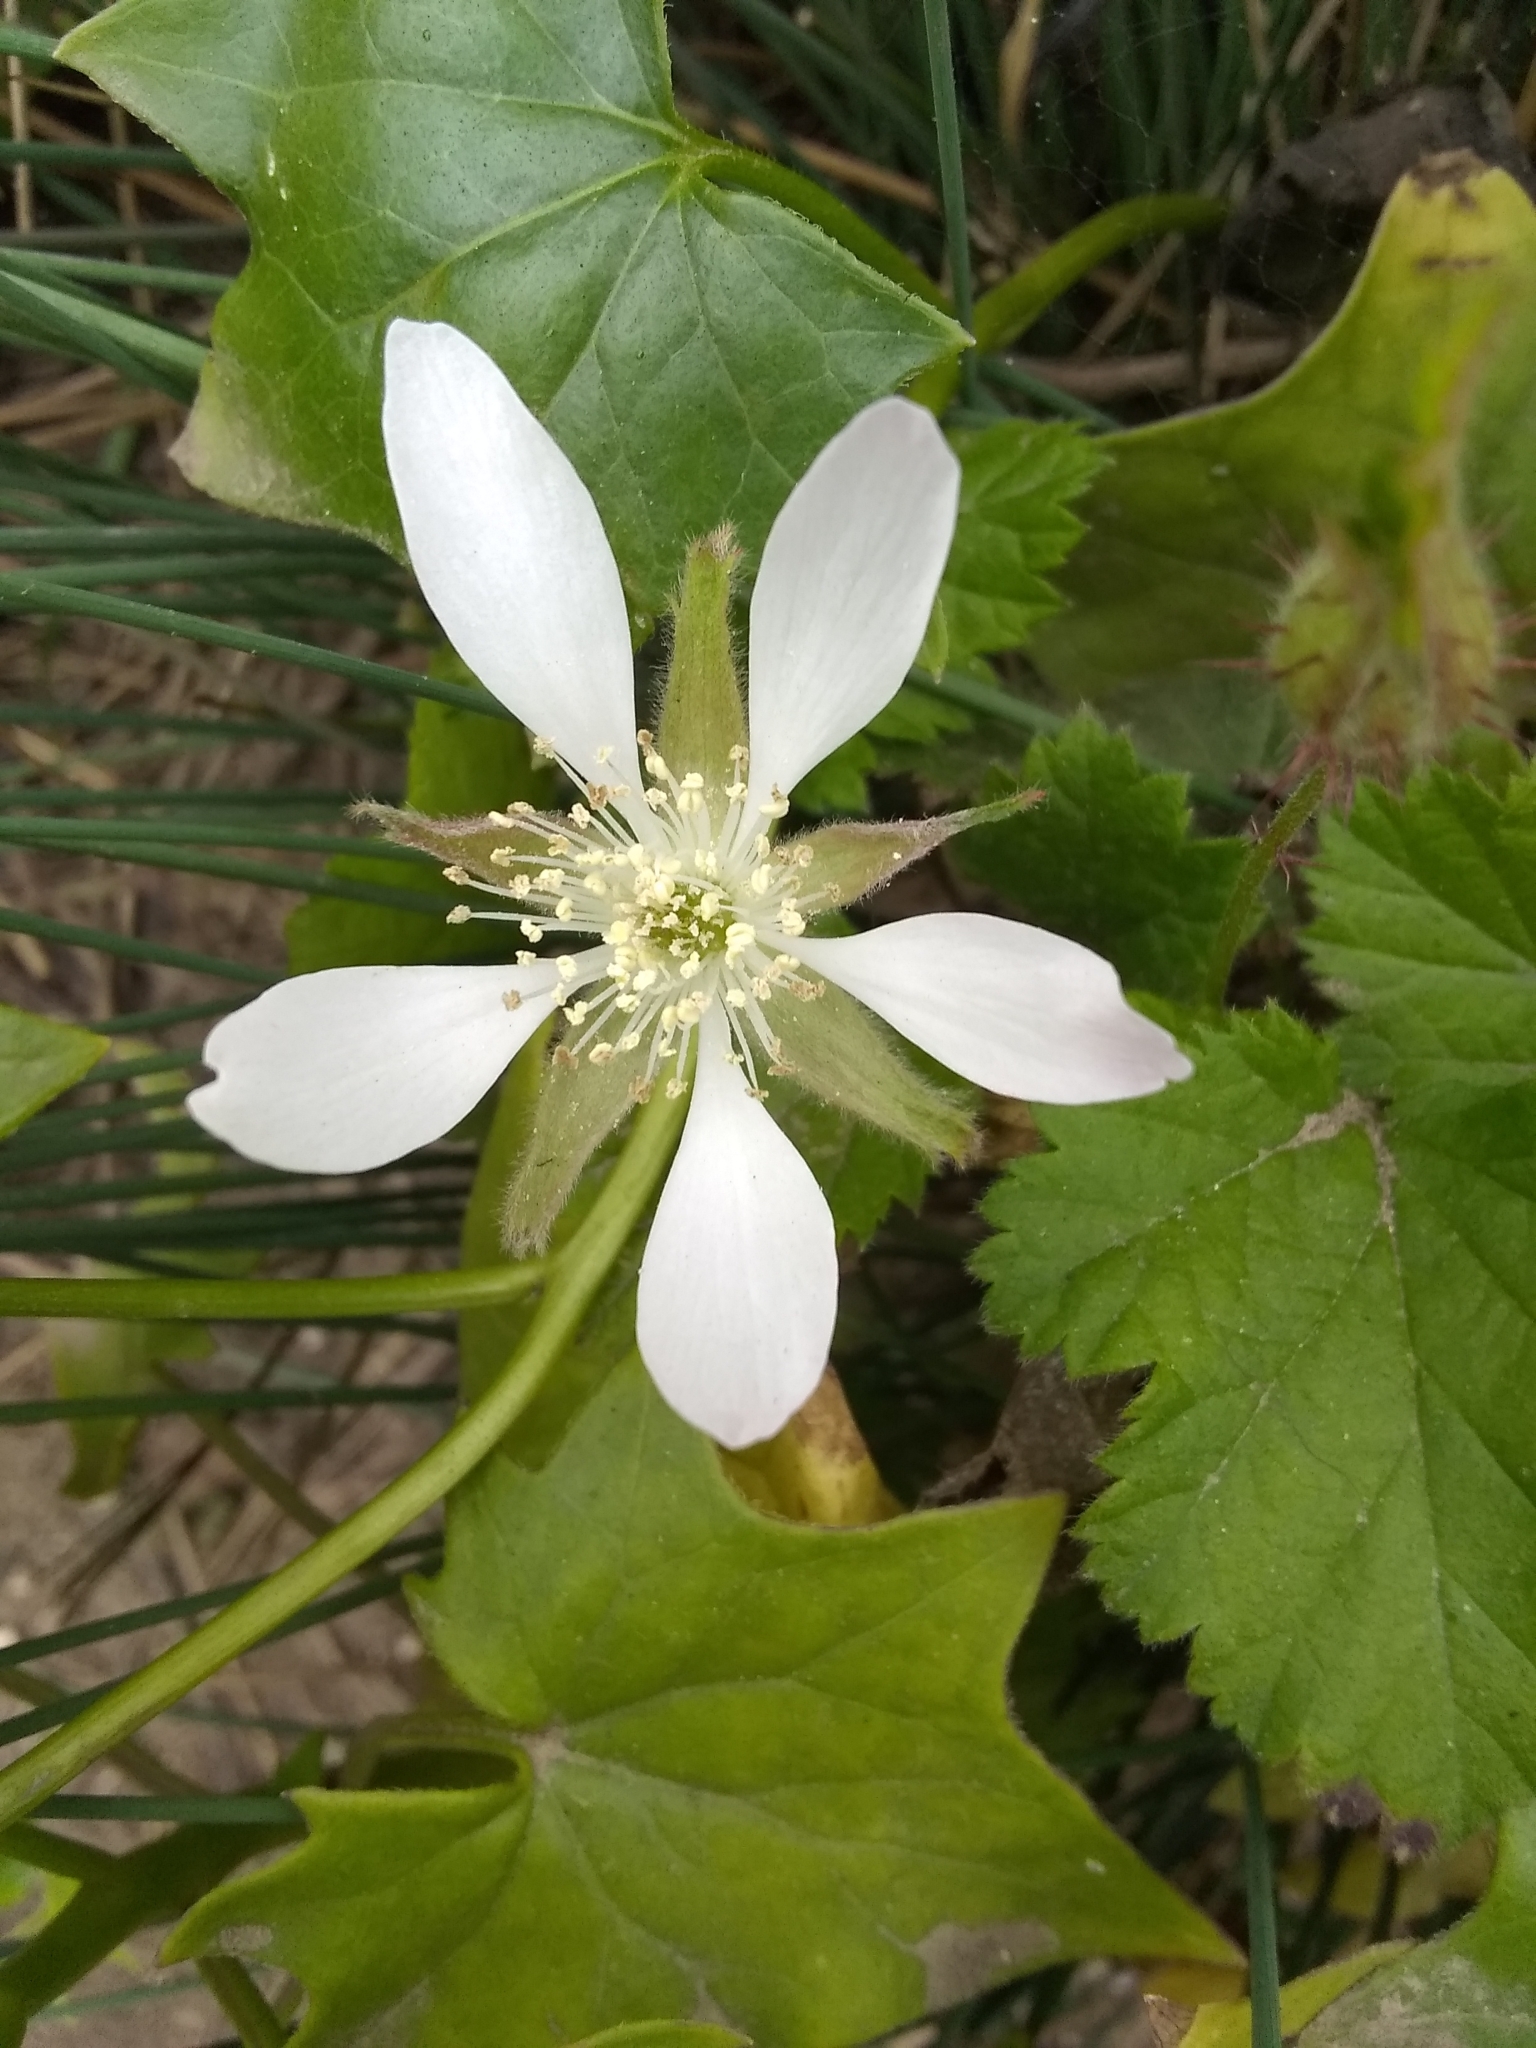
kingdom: Plantae
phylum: Tracheophyta
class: Magnoliopsida
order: Rosales
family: Rosaceae
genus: Rubus
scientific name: Rubus ursinus
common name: Pacific blackberry
